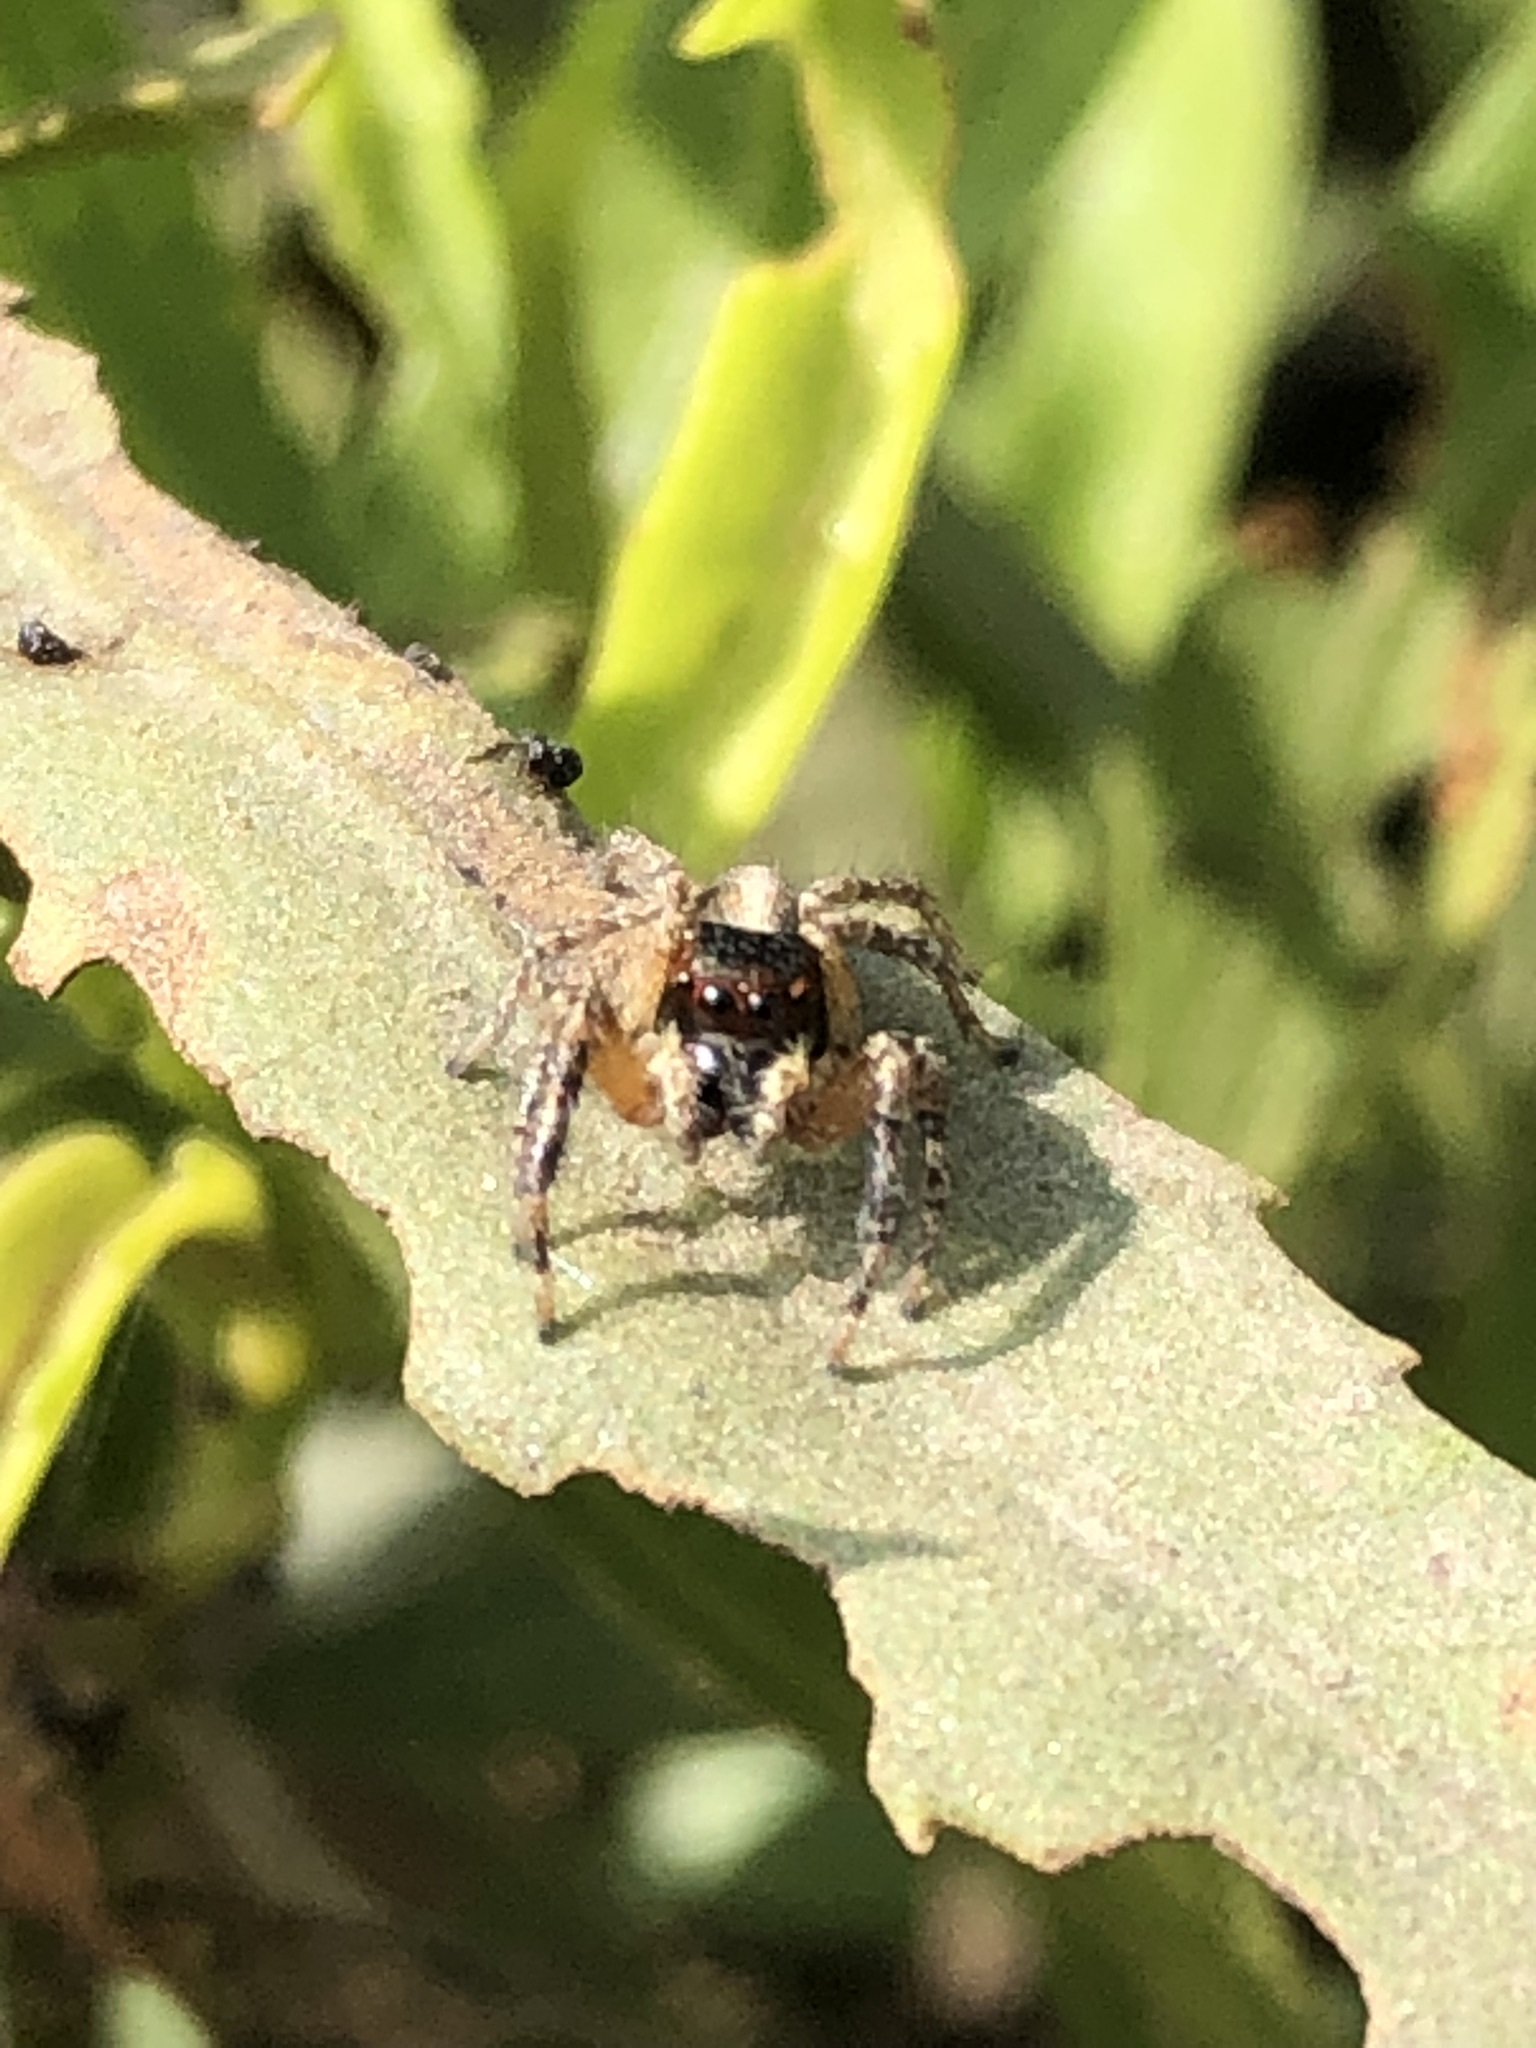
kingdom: Animalia
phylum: Arthropoda
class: Arachnida
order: Araneae
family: Salticidae
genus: Frigga
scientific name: Frigga crocuta
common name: Jumping spiders
